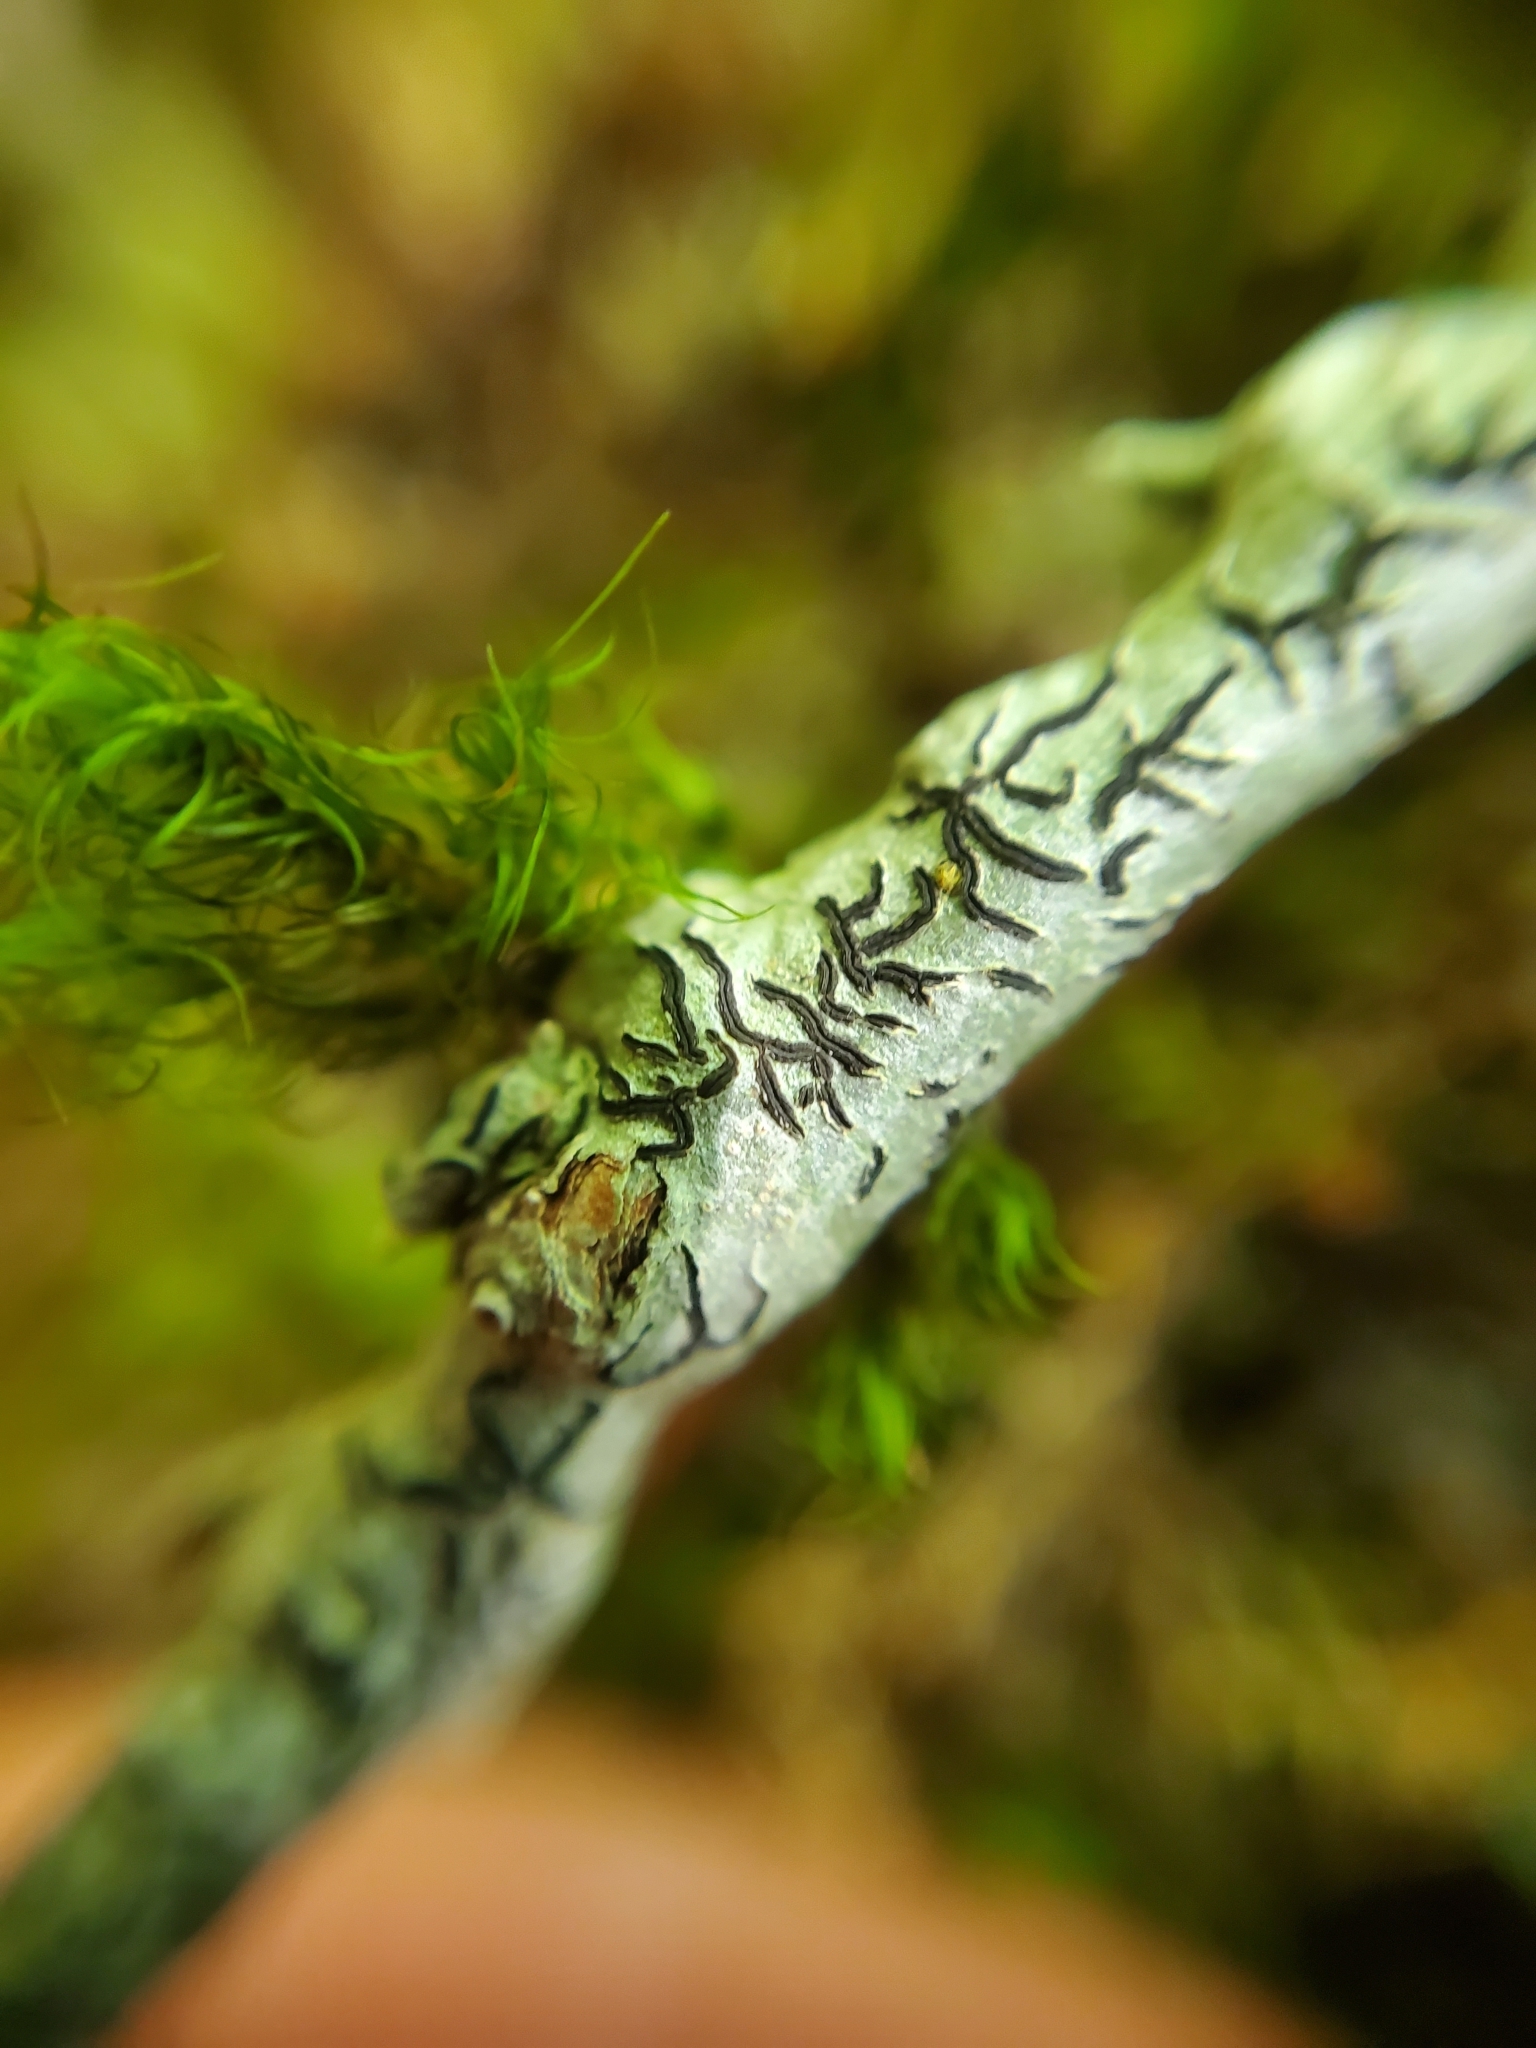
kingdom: Fungi
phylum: Ascomycota
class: Lecanoromycetes
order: Ostropales
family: Graphidaceae
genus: Graphis
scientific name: Graphis scripta
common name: Script lichen
